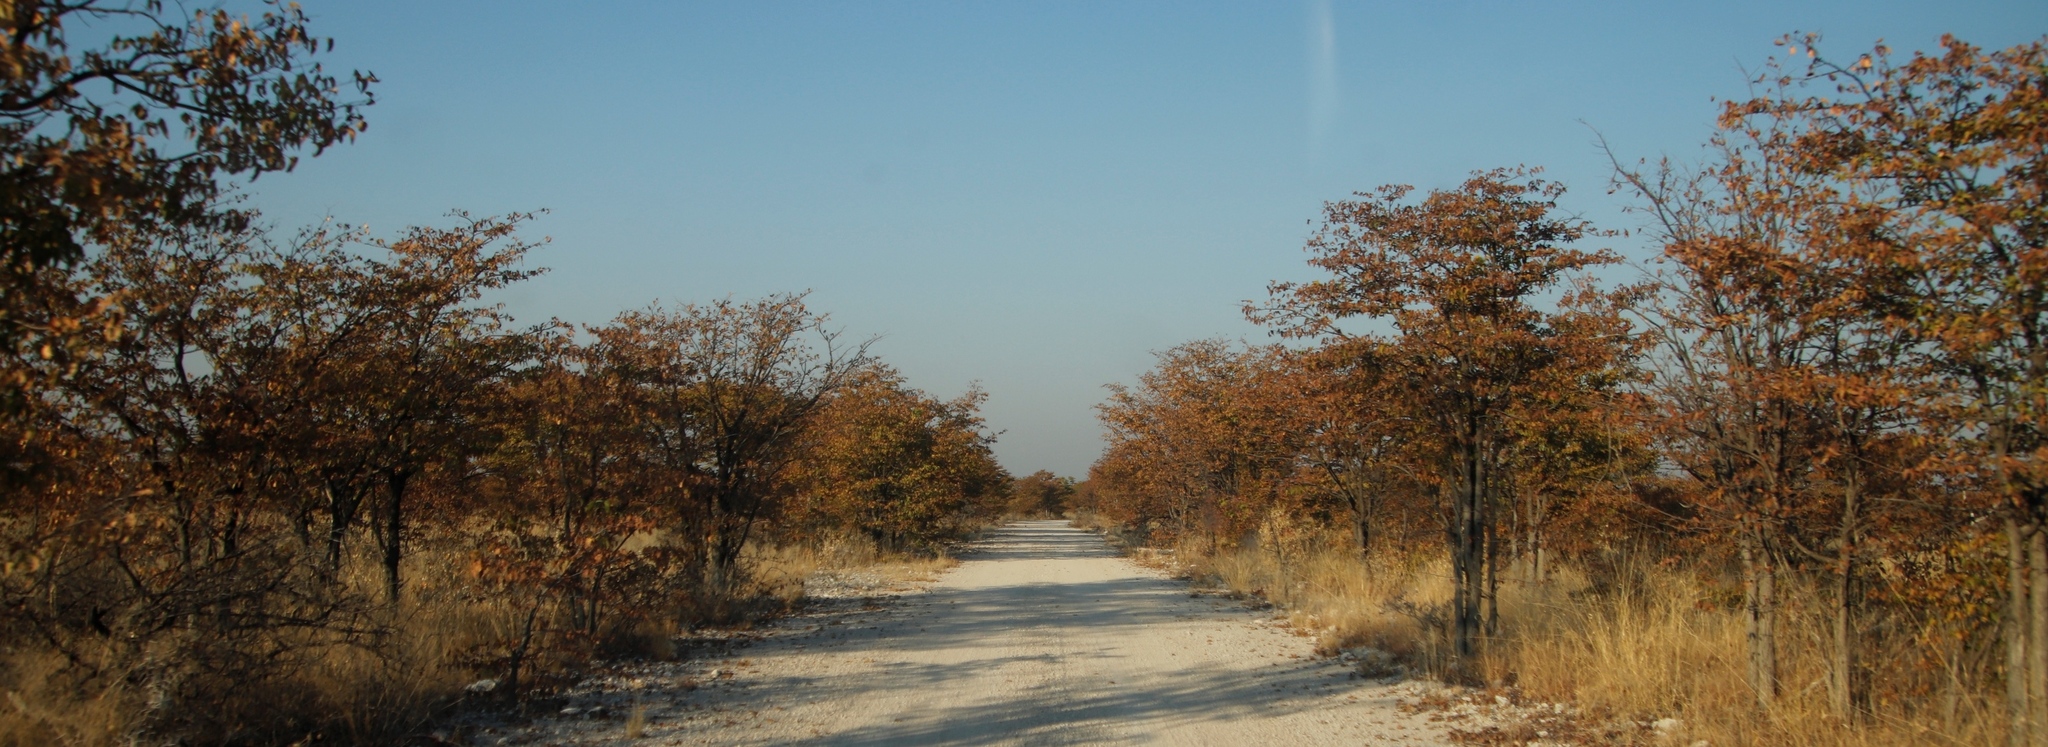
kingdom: Plantae
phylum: Tracheophyta
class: Magnoliopsida
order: Fabales
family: Fabaceae
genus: Colophospermum
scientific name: Colophospermum mopane
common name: Mopane
